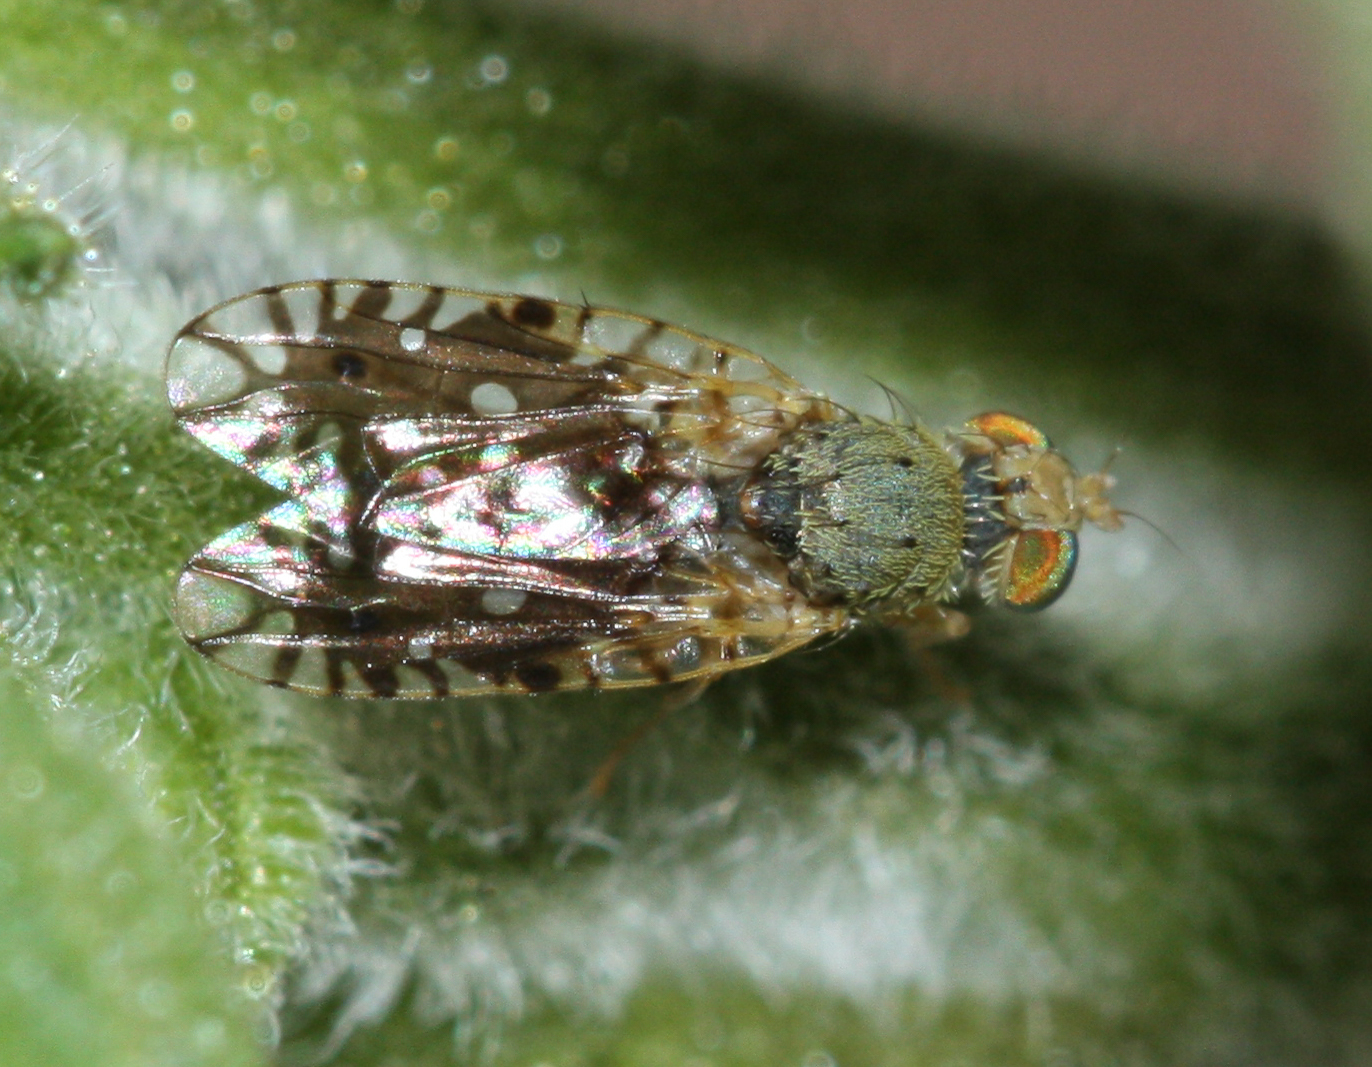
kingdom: Animalia
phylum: Arthropoda
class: Insecta
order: Diptera
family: Tephritidae
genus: Euaresta
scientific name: Euaresta stigmatica
